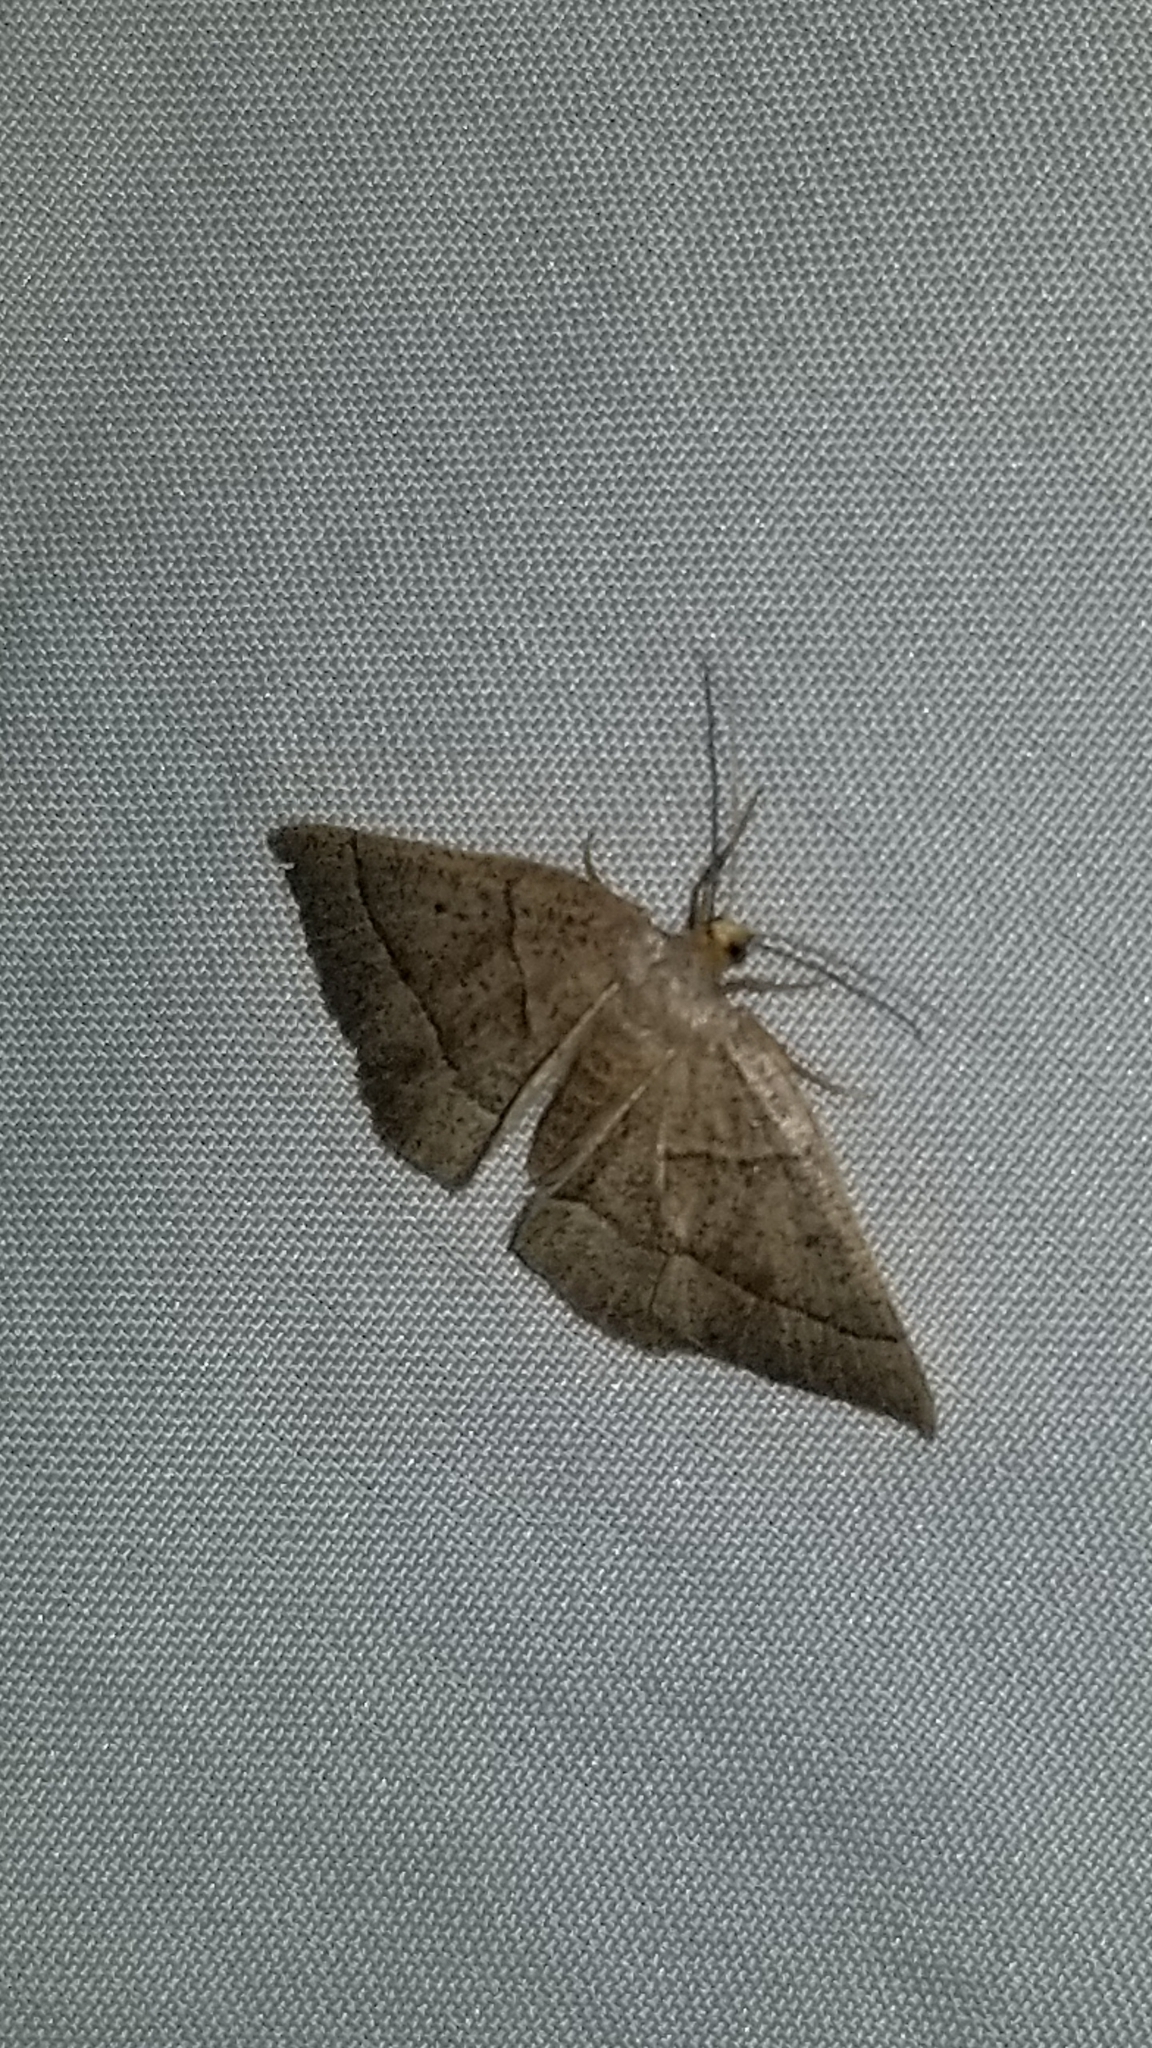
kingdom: Animalia
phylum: Arthropoda
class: Insecta
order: Lepidoptera
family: Geometridae
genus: Episemasia
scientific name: Episemasia cervinaria
